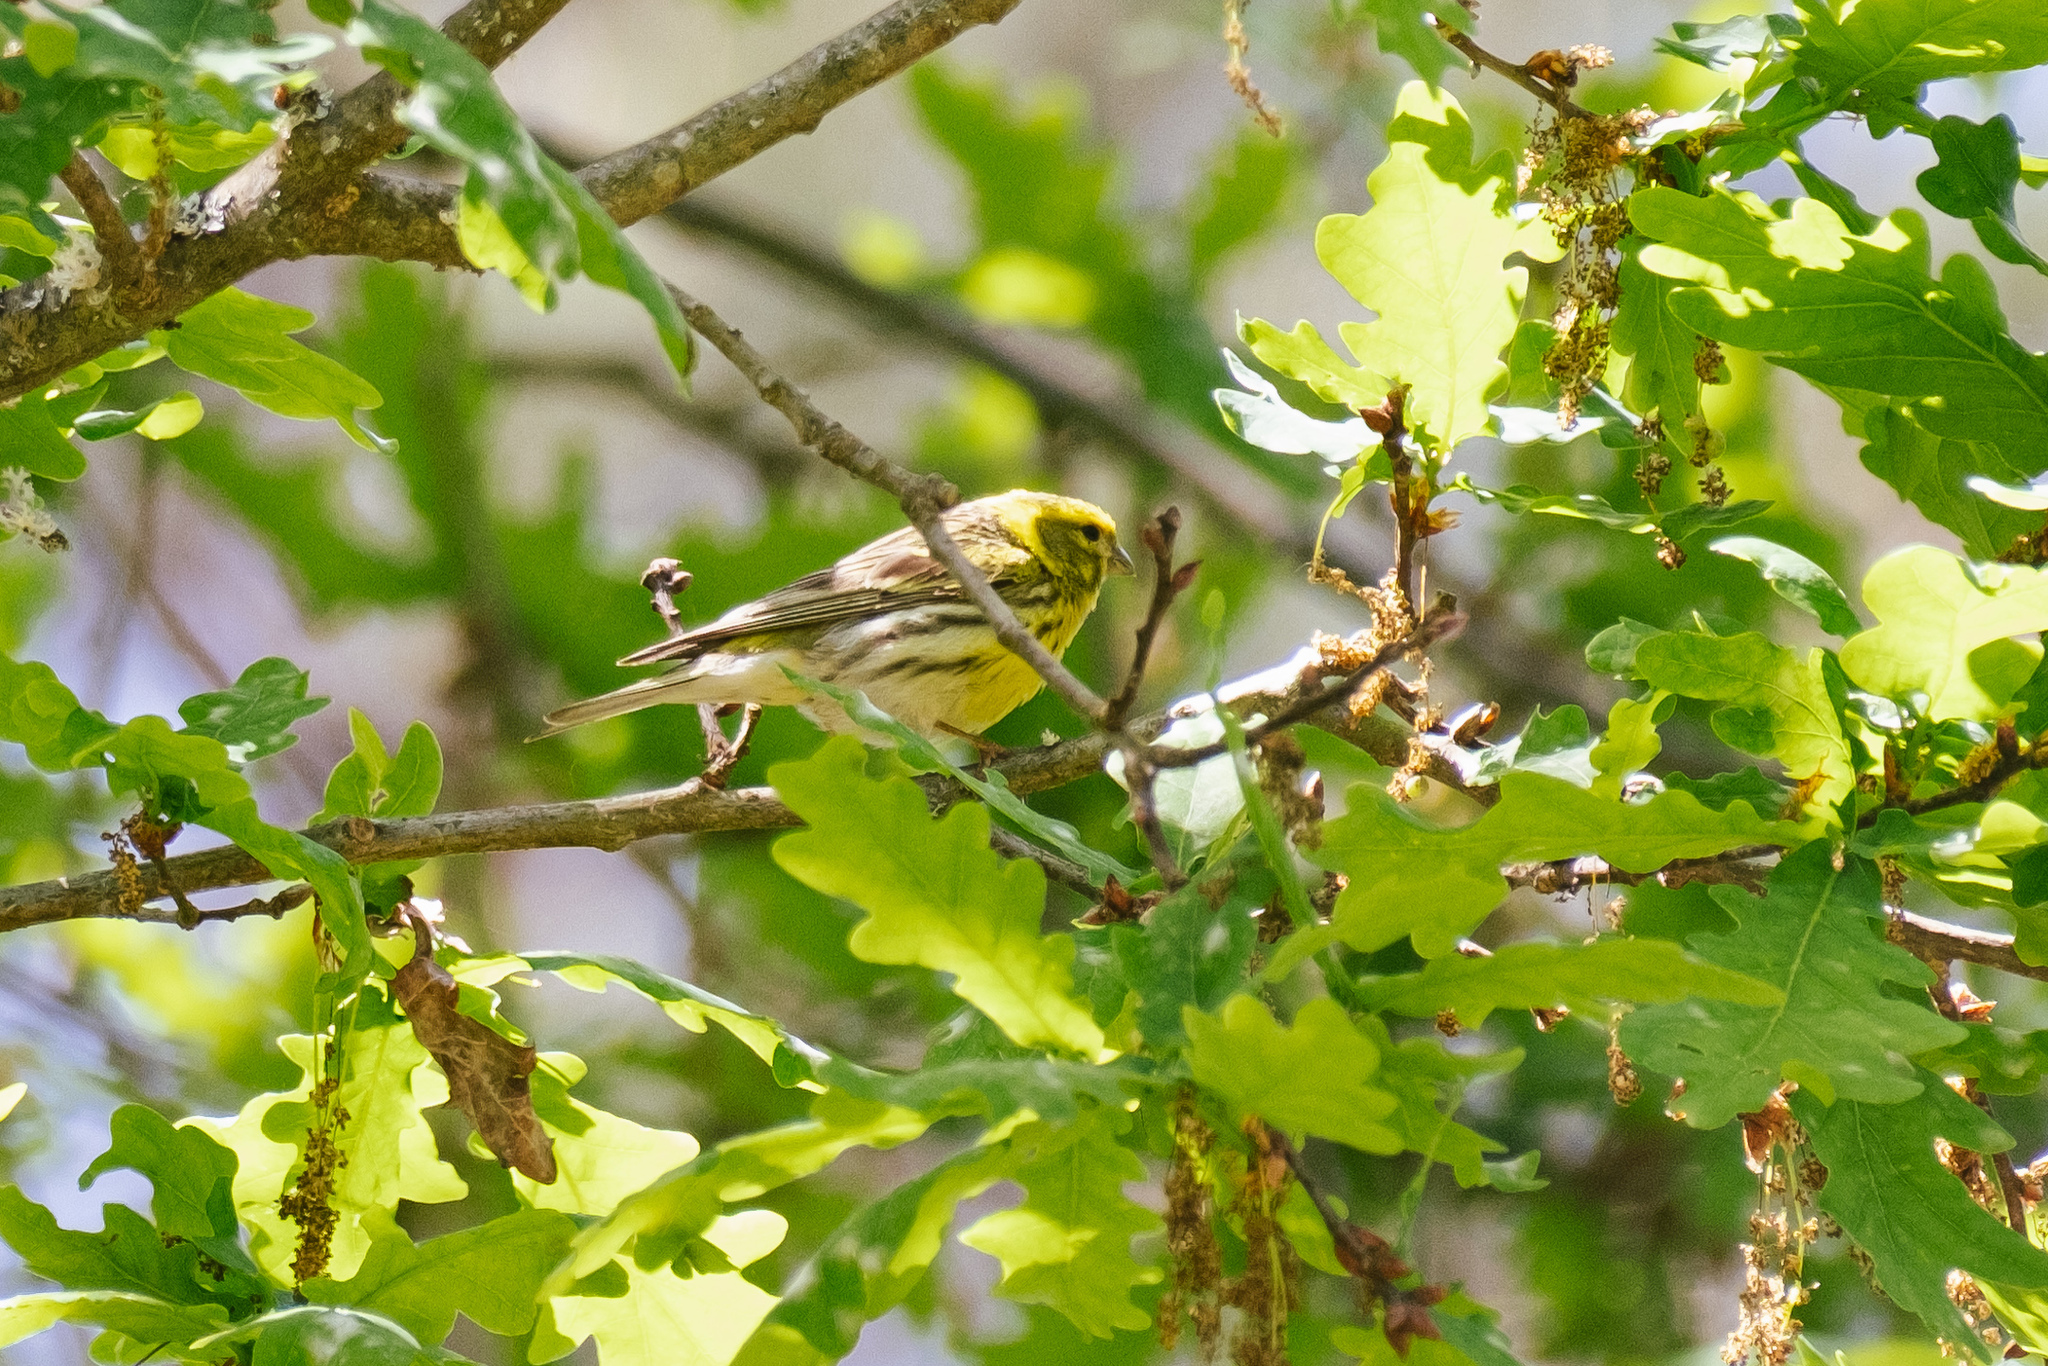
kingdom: Animalia
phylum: Chordata
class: Aves
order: Passeriformes
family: Fringillidae
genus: Serinus
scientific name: Serinus serinus
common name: European serin
